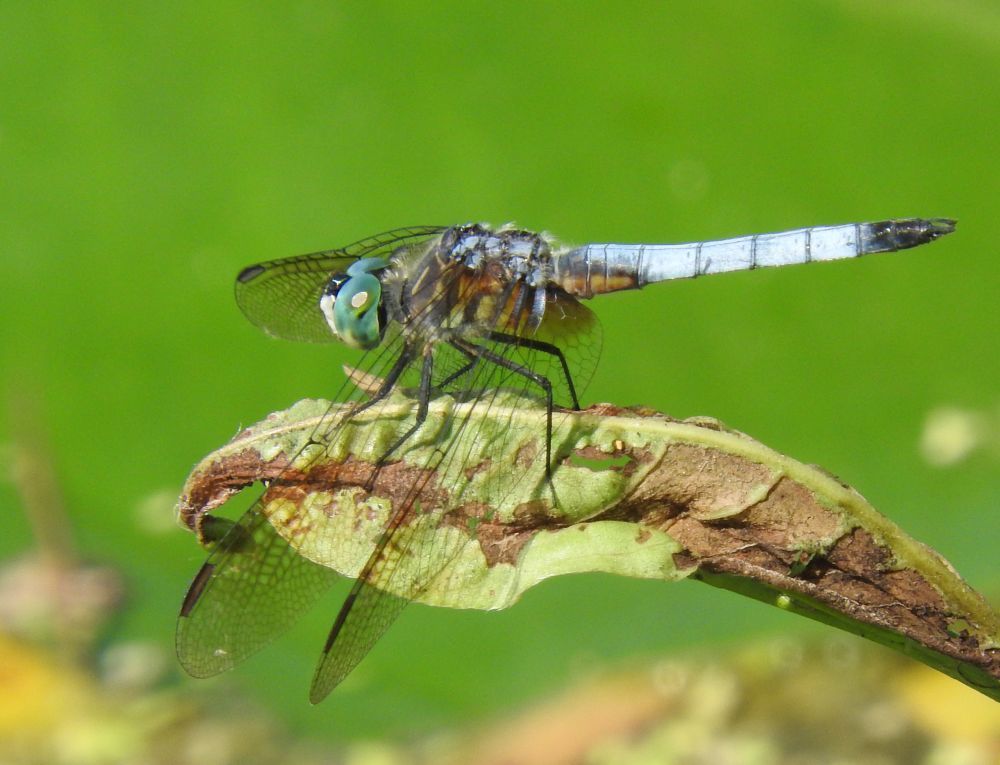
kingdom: Animalia
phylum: Arthropoda
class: Insecta
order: Odonata
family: Libellulidae
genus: Pachydiplax
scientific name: Pachydiplax longipennis
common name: Blue dasher
